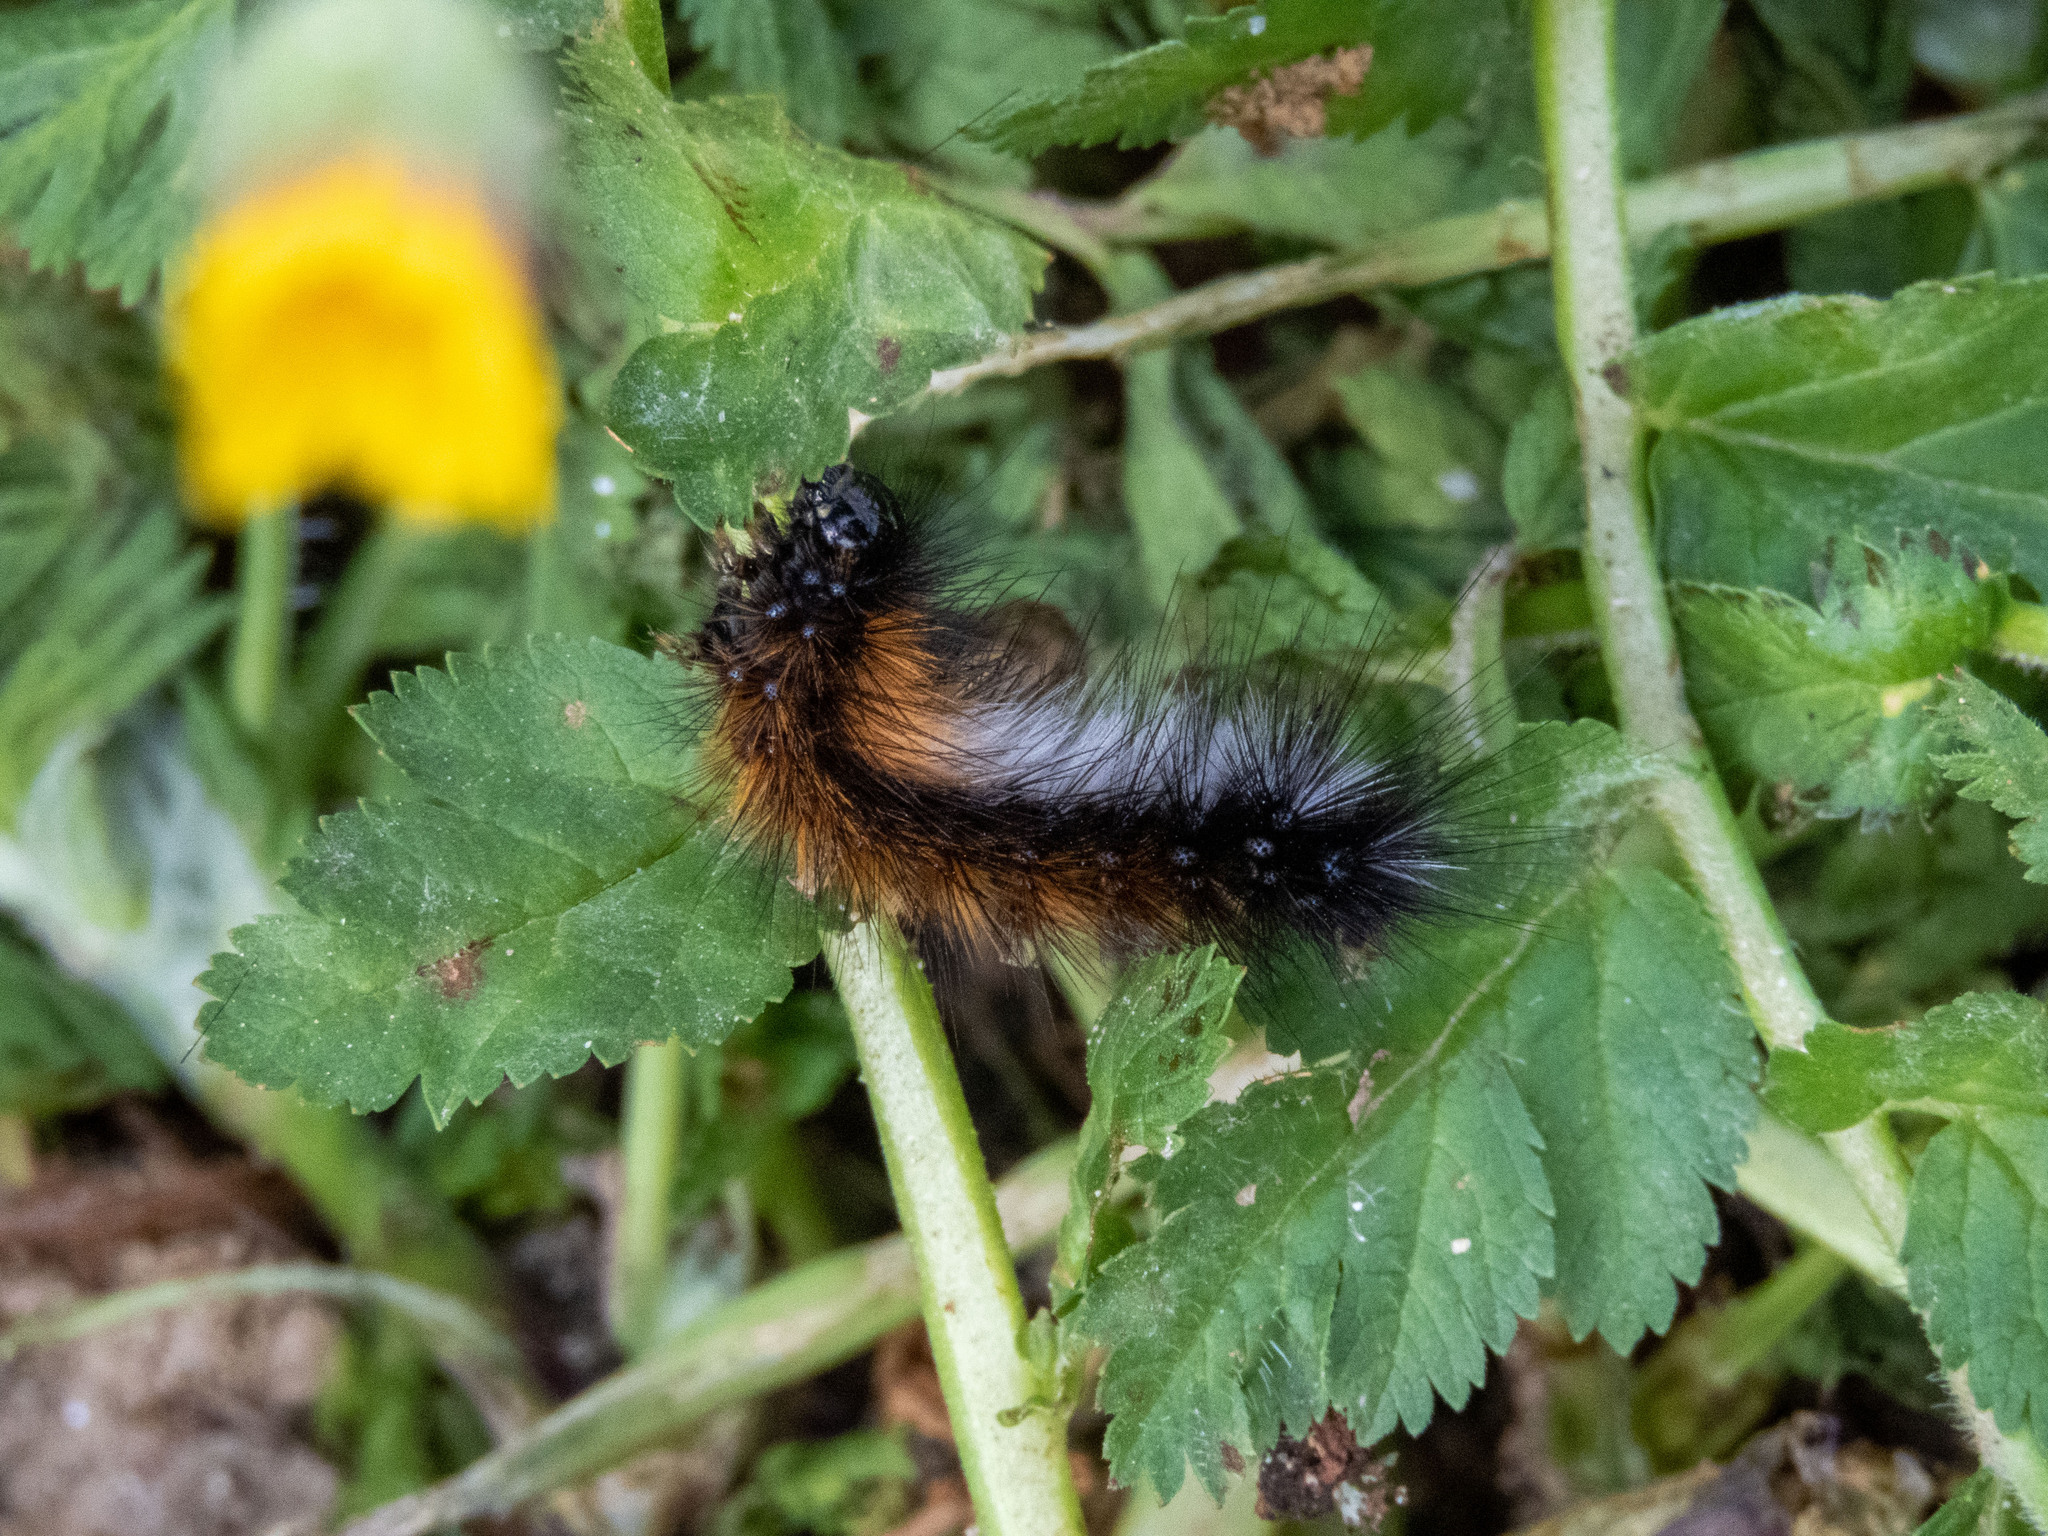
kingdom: Animalia
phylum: Arthropoda
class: Insecta
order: Lepidoptera
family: Erebidae
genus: Ocnogyna
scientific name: Ocnogyna boeticum
